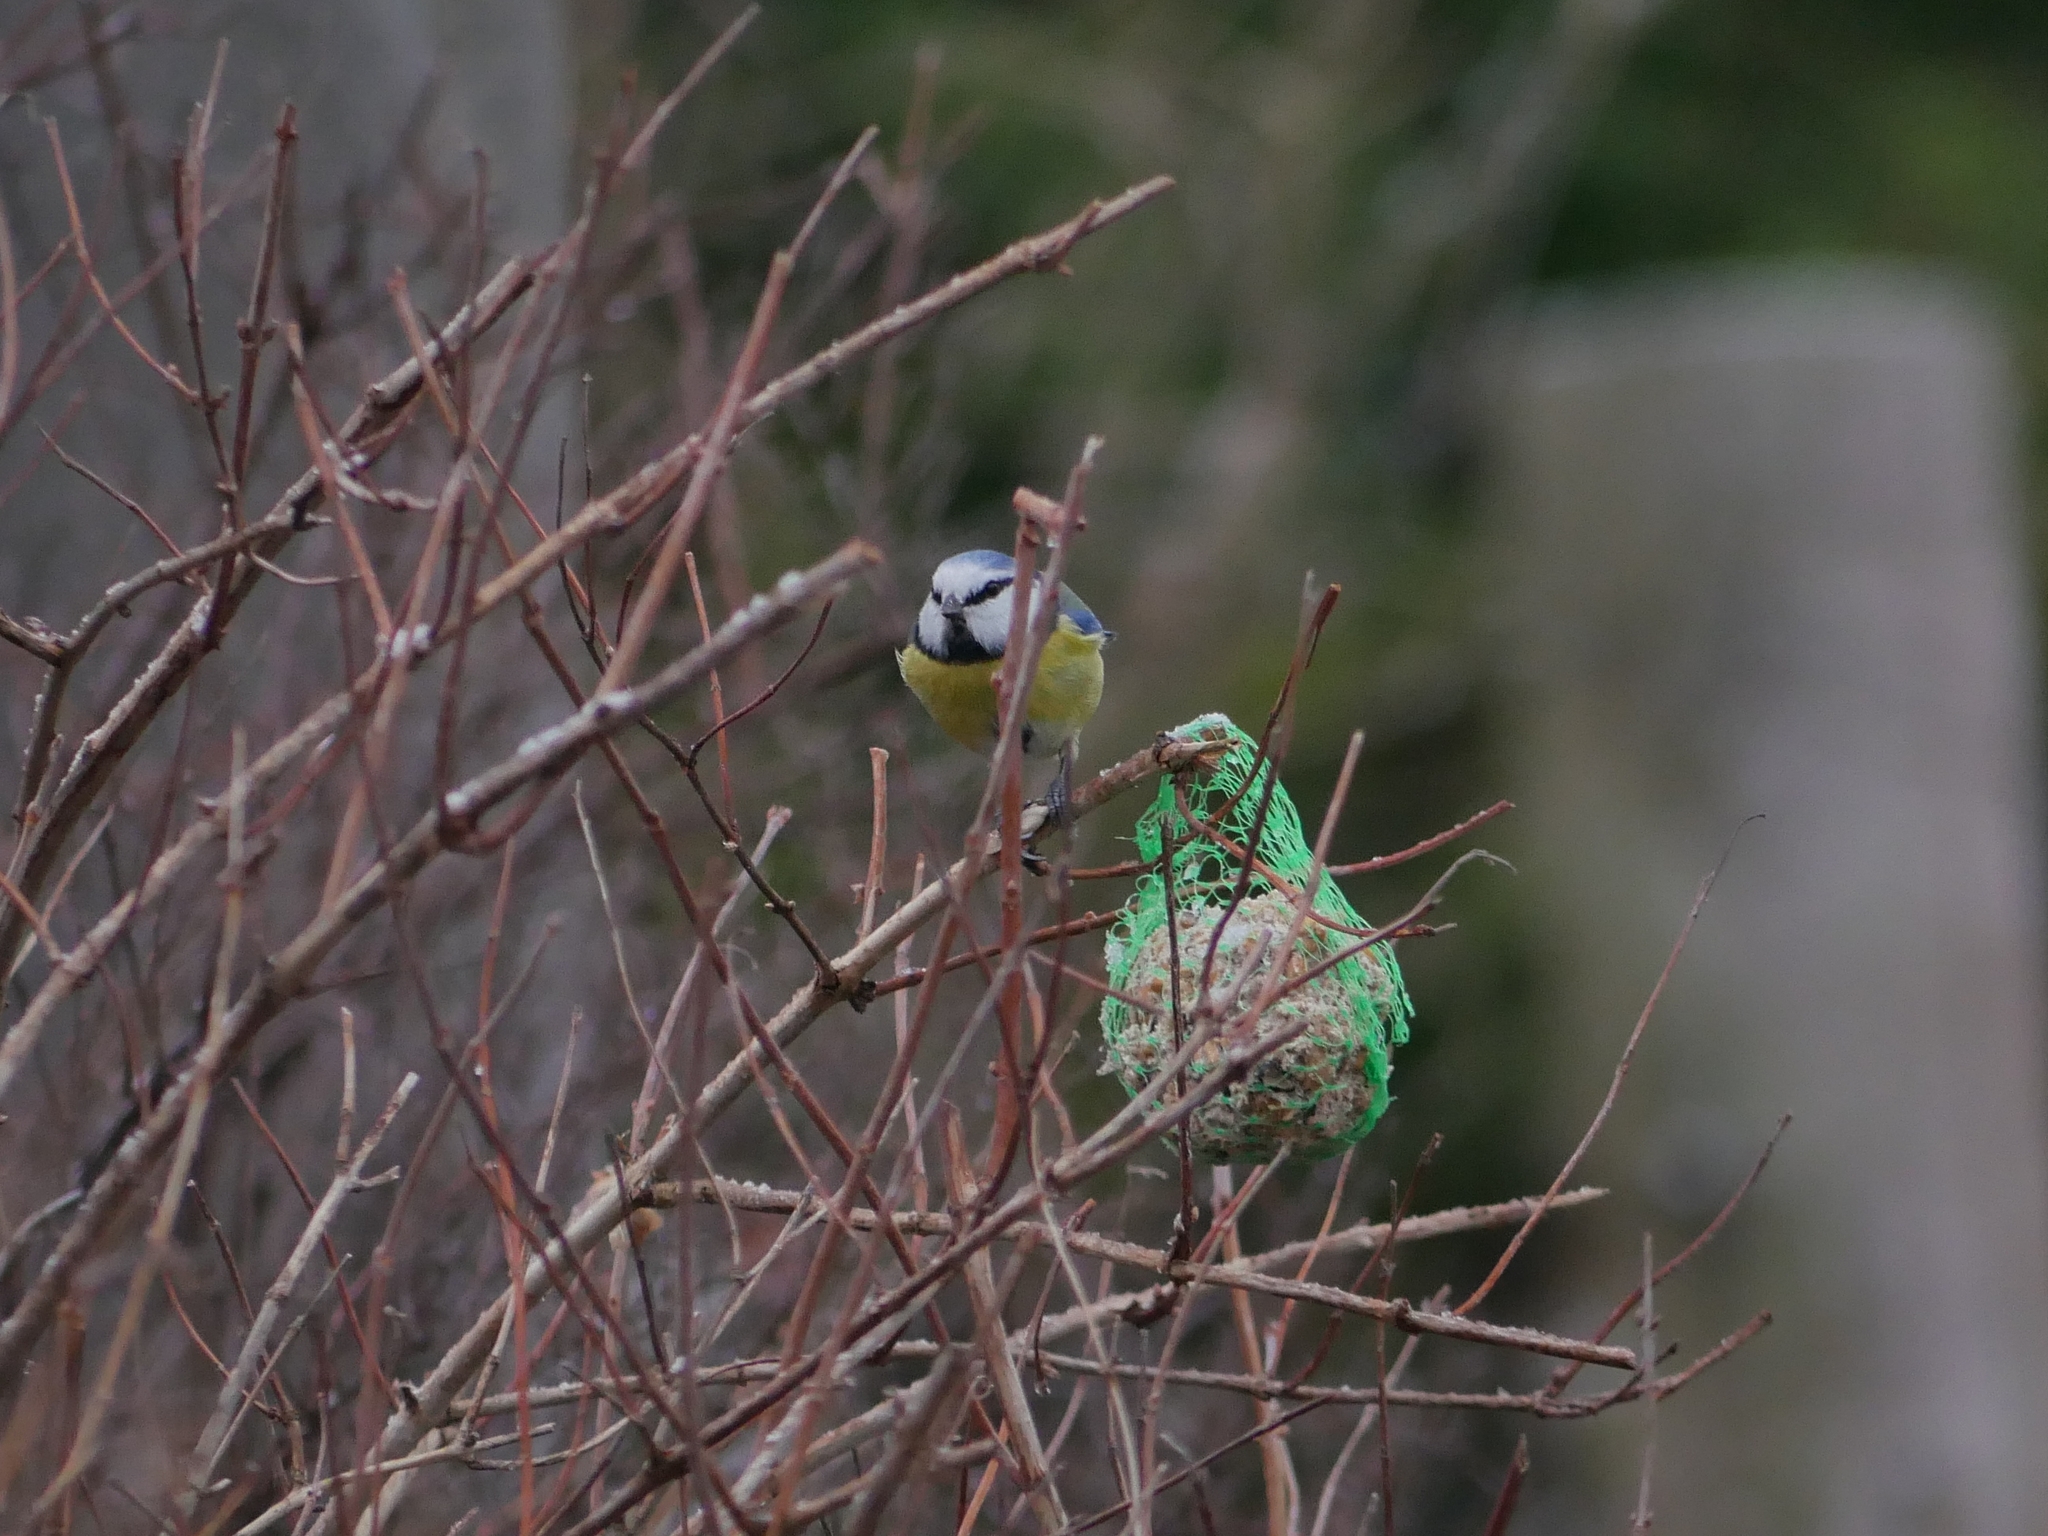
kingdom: Animalia
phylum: Chordata
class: Aves
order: Passeriformes
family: Paridae
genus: Cyanistes
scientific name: Cyanistes caeruleus
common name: Eurasian blue tit
